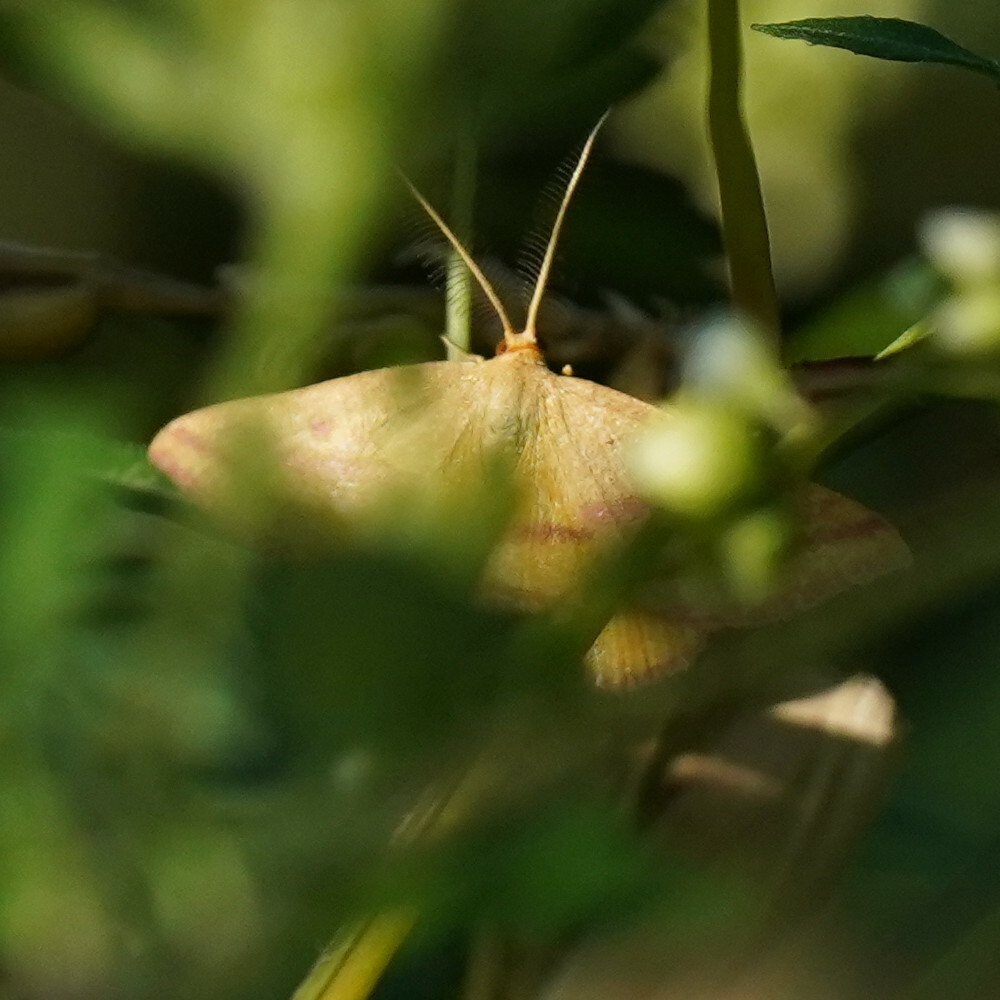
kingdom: Animalia
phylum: Arthropoda
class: Insecta
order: Lepidoptera
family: Geometridae
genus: Haematopis
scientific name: Haematopis grataria
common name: Chickweed geometer
